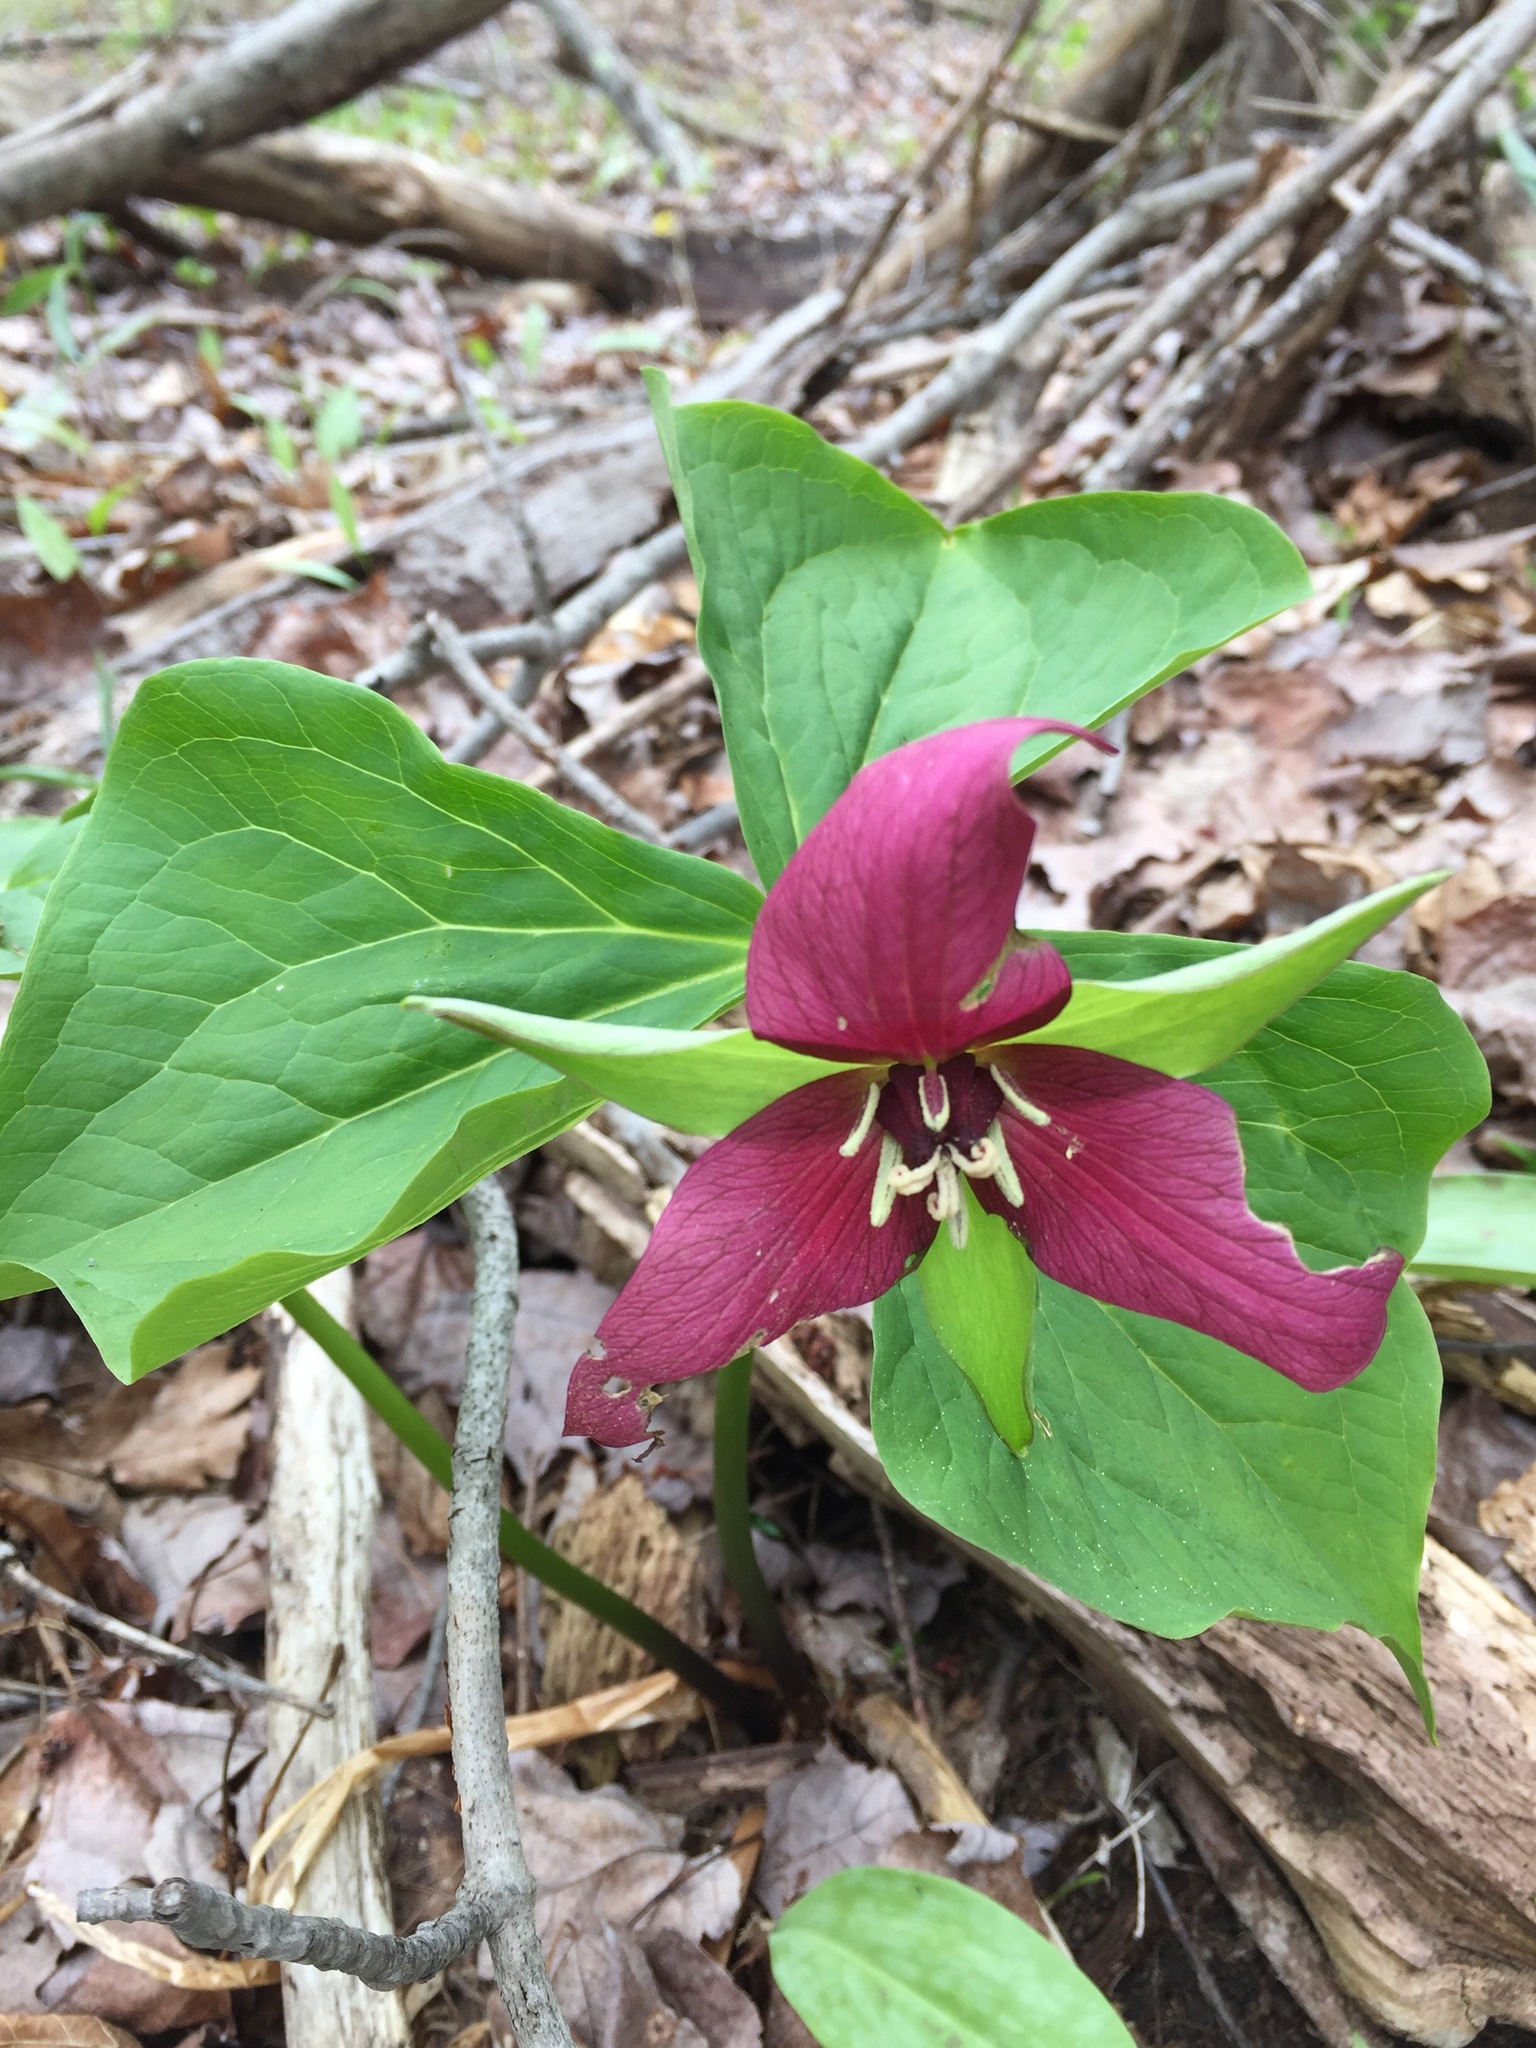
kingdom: Plantae
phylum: Tracheophyta
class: Liliopsida
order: Liliales
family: Melanthiaceae
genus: Trillium
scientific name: Trillium erectum
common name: Purple trillium
